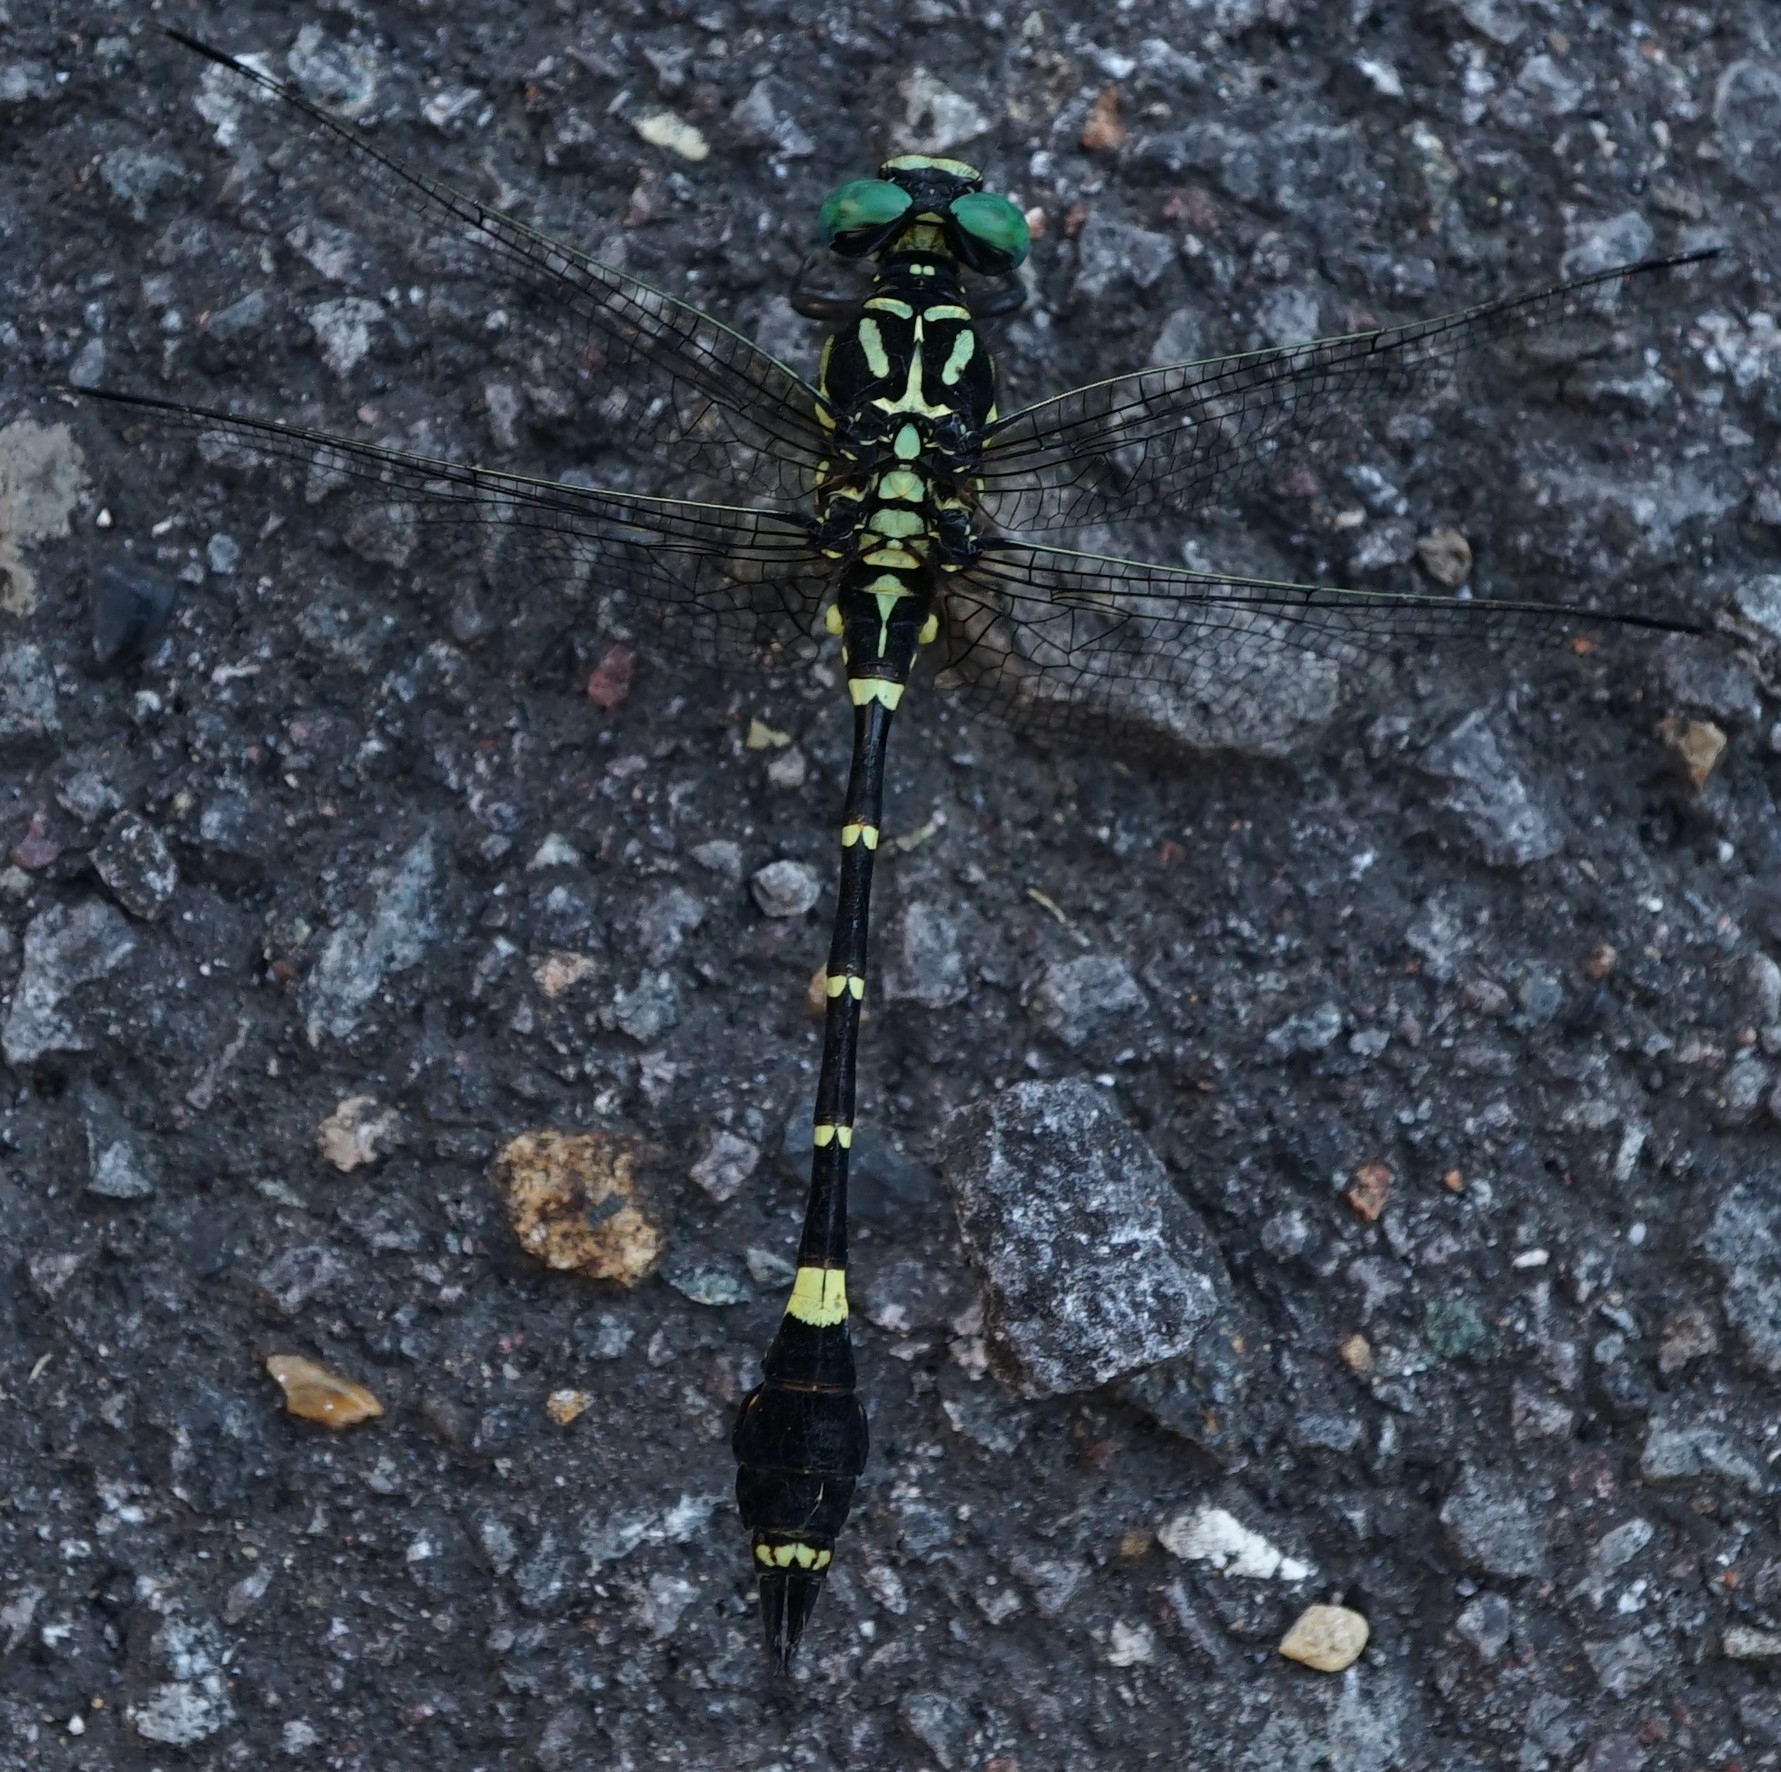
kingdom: Animalia
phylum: Arthropoda
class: Insecta
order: Odonata
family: Gomphidae
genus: Melligomphus
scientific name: Melligomphus viridicostus
